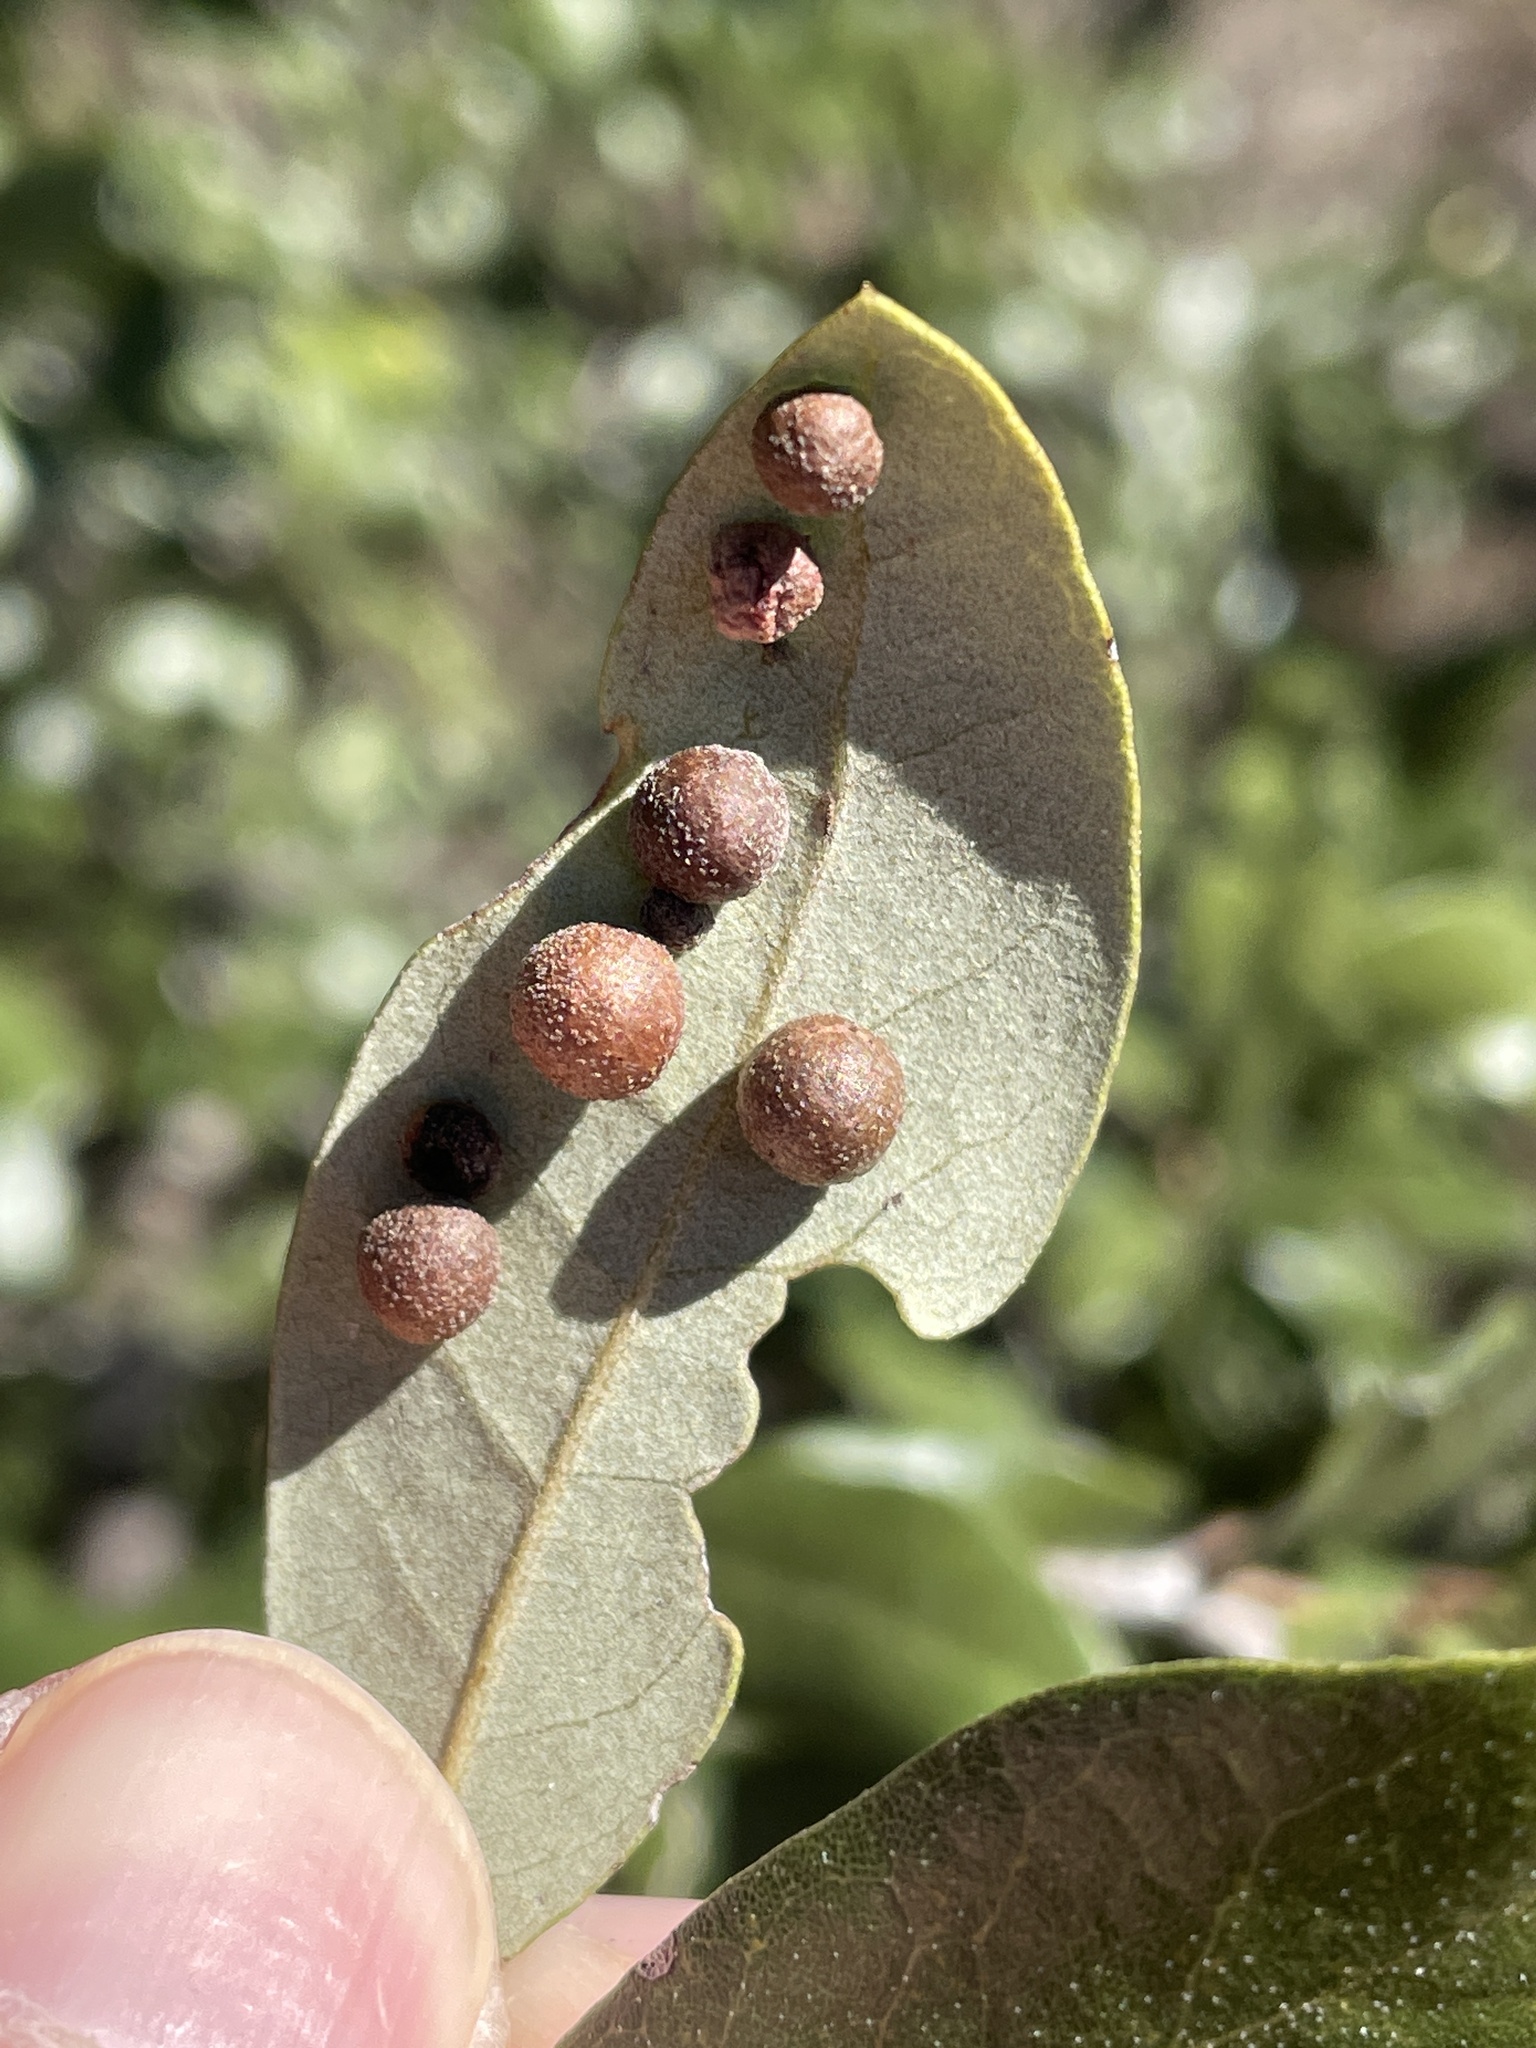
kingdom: Animalia
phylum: Arthropoda
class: Insecta
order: Hymenoptera
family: Cynipidae
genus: Belonocnema
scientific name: Belonocnema kinseyi
